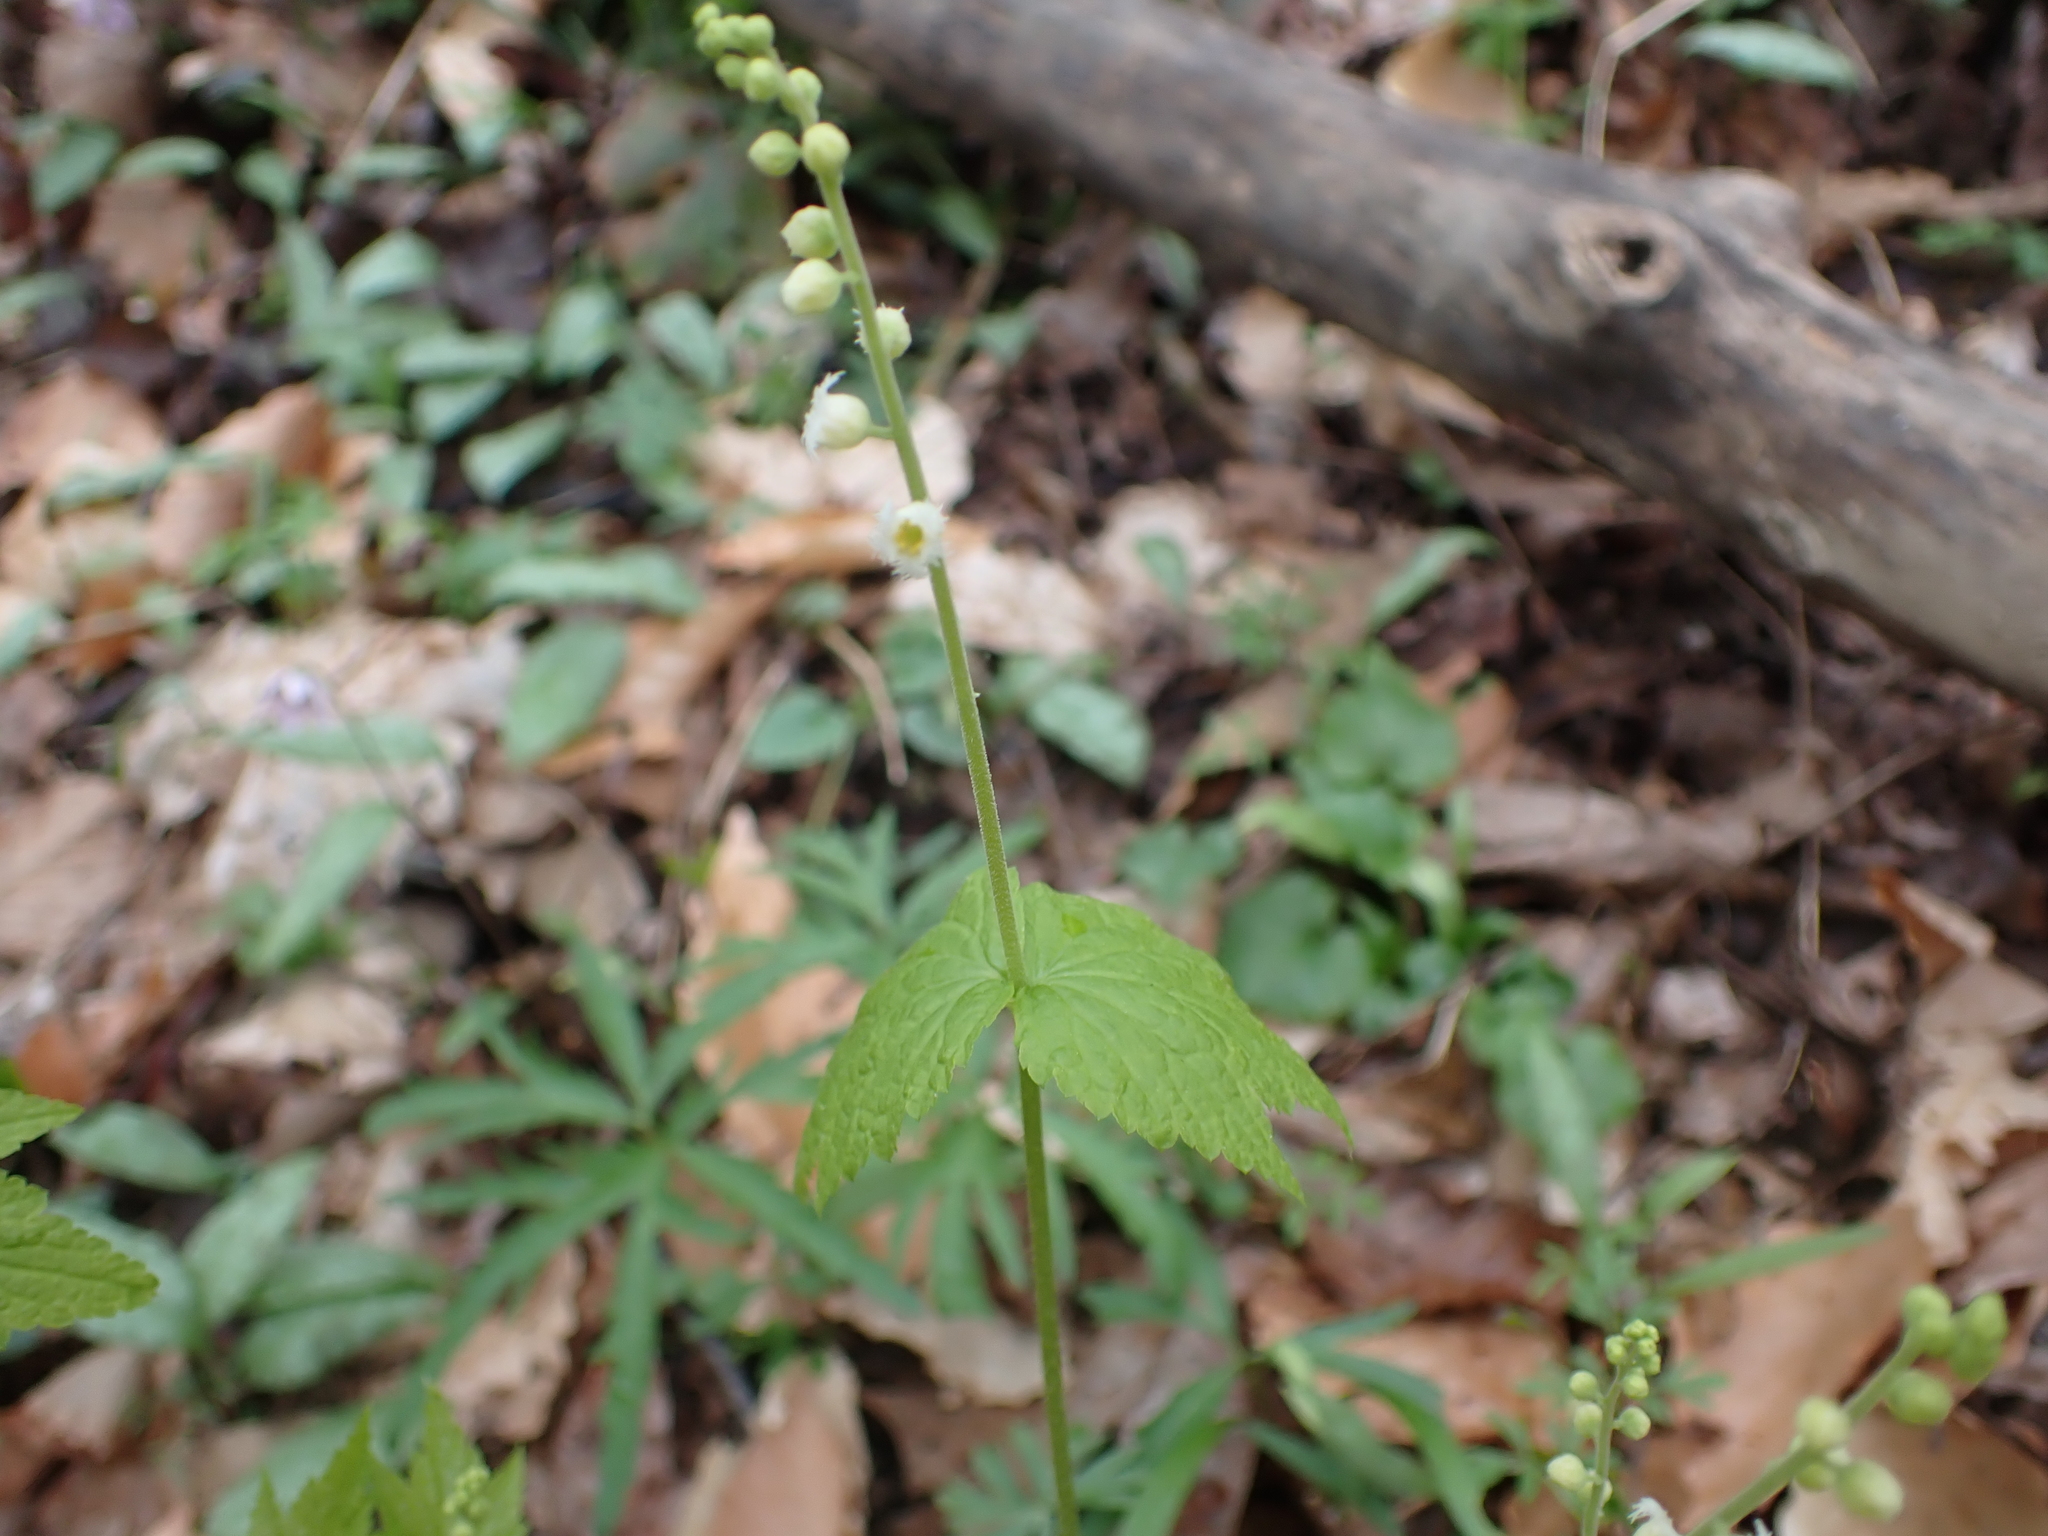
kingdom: Plantae
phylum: Tracheophyta
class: Magnoliopsida
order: Saxifragales
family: Saxifragaceae
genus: Mitella
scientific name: Mitella diphylla
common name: Coolwort
